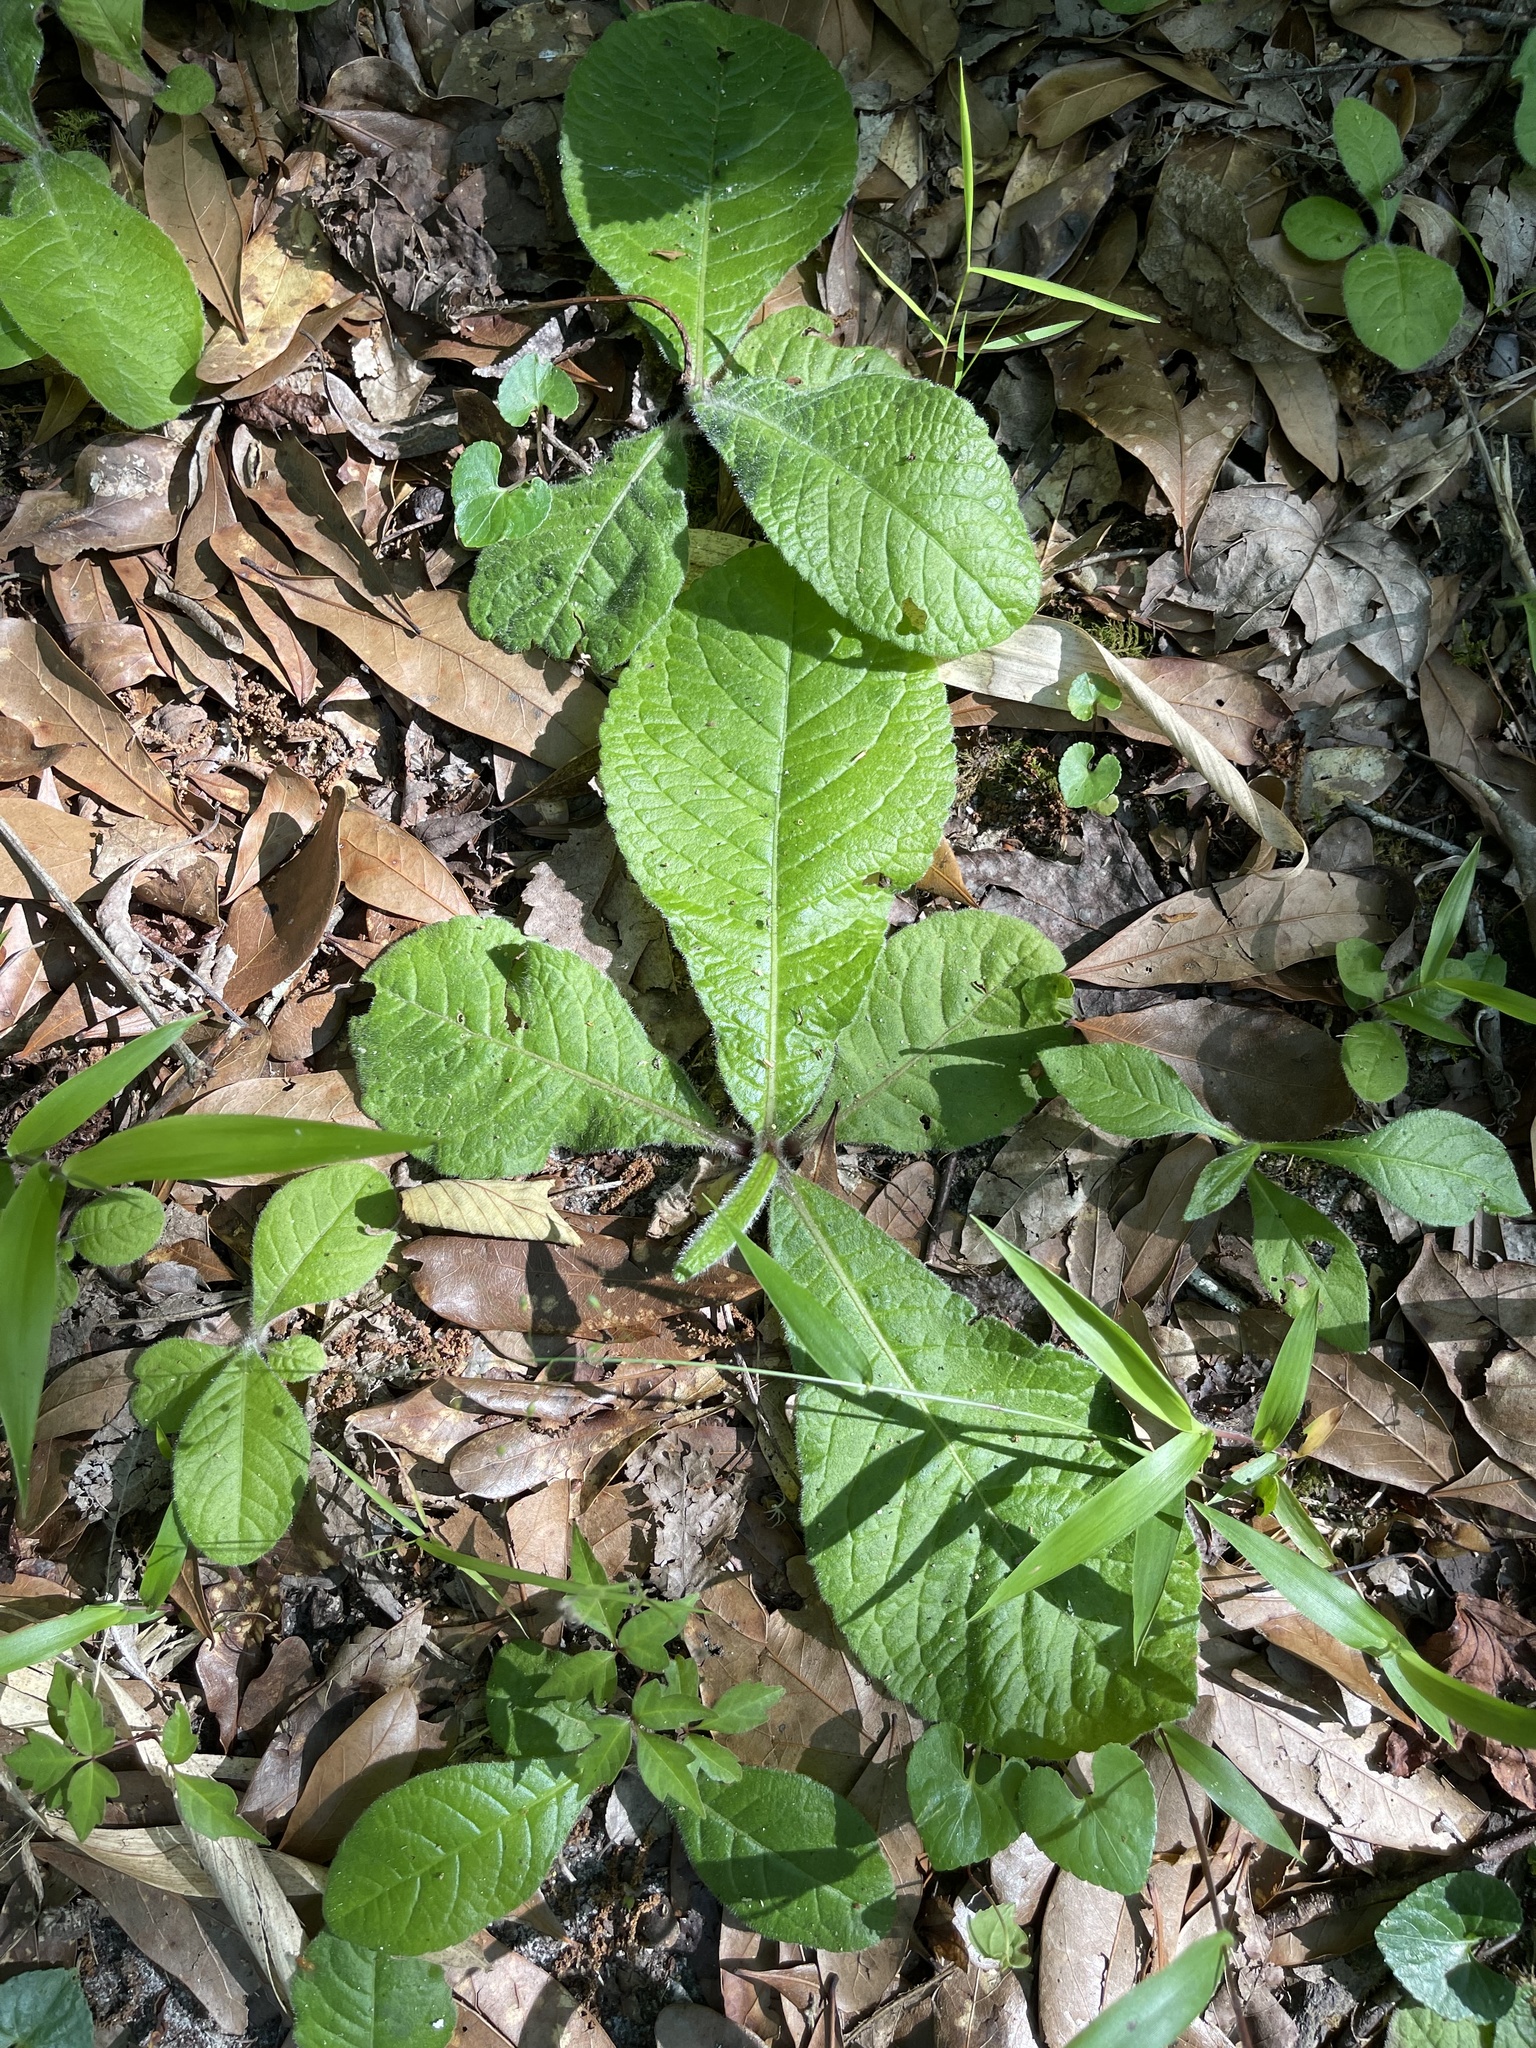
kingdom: Plantae
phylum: Tracheophyta
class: Magnoliopsida
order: Asterales
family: Asteraceae
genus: Elephantopus
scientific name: Elephantopus tomentosus
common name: Tobacco-weed
